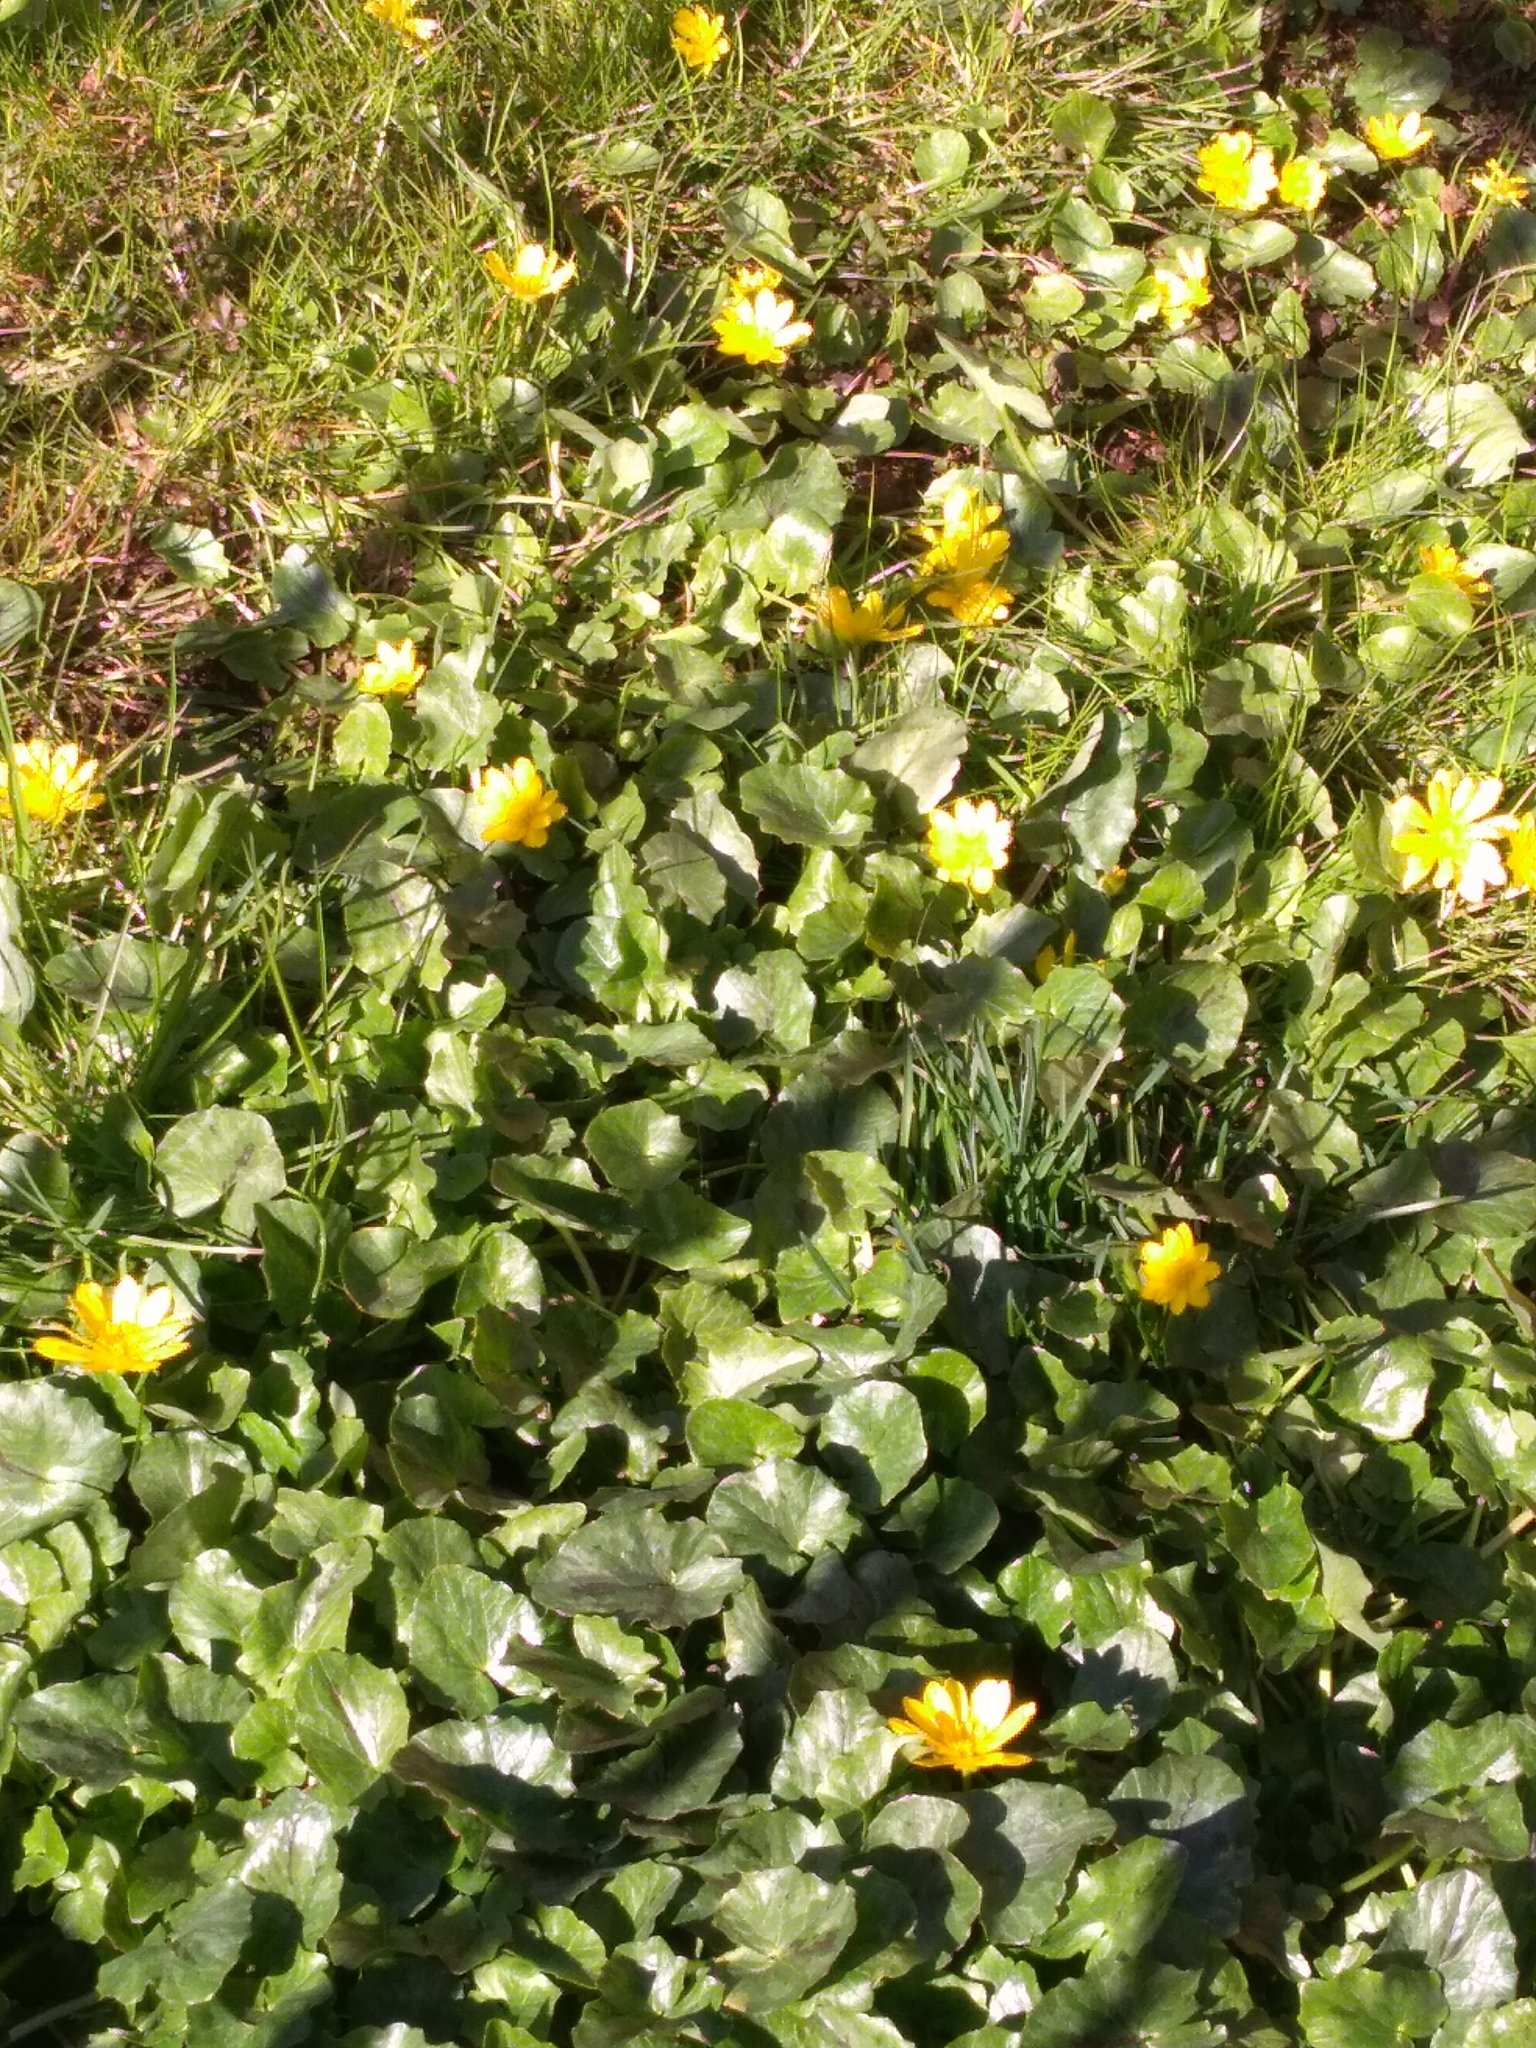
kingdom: Plantae
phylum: Tracheophyta
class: Magnoliopsida
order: Ranunculales
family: Ranunculaceae
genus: Ficaria
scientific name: Ficaria verna
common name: Lesser celandine
